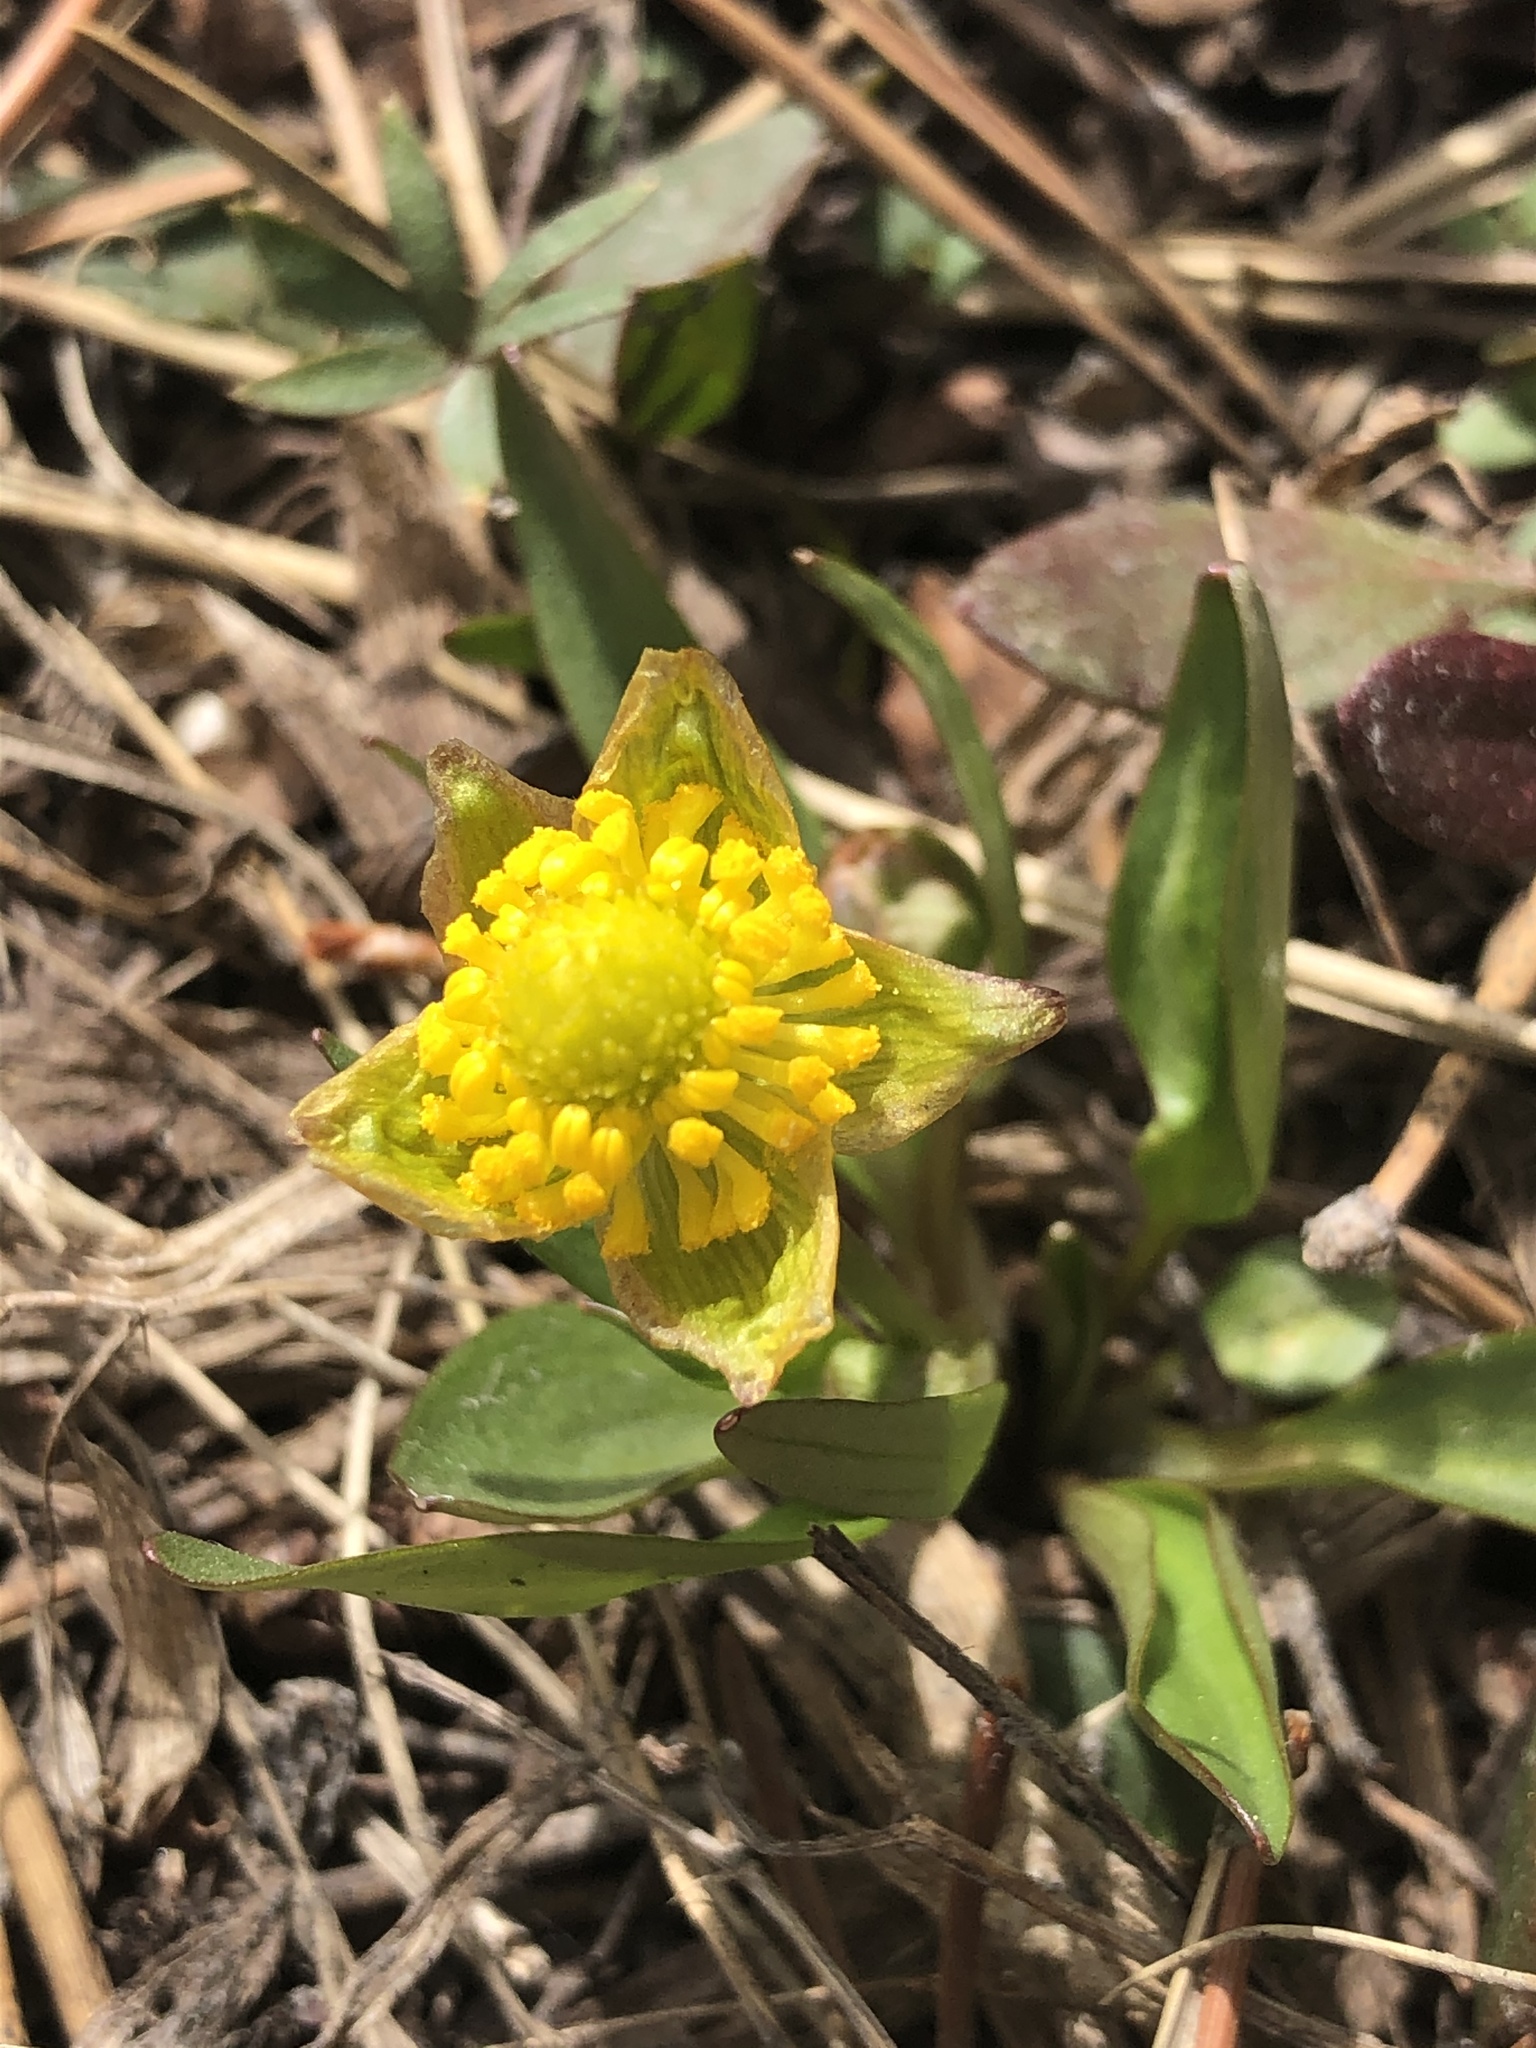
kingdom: Plantae
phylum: Tracheophyta
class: Magnoliopsida
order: Ranunculales
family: Ranunculaceae
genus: Ranunculus
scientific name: Ranunculus glaberrimus
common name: Sagebrush buttercup
